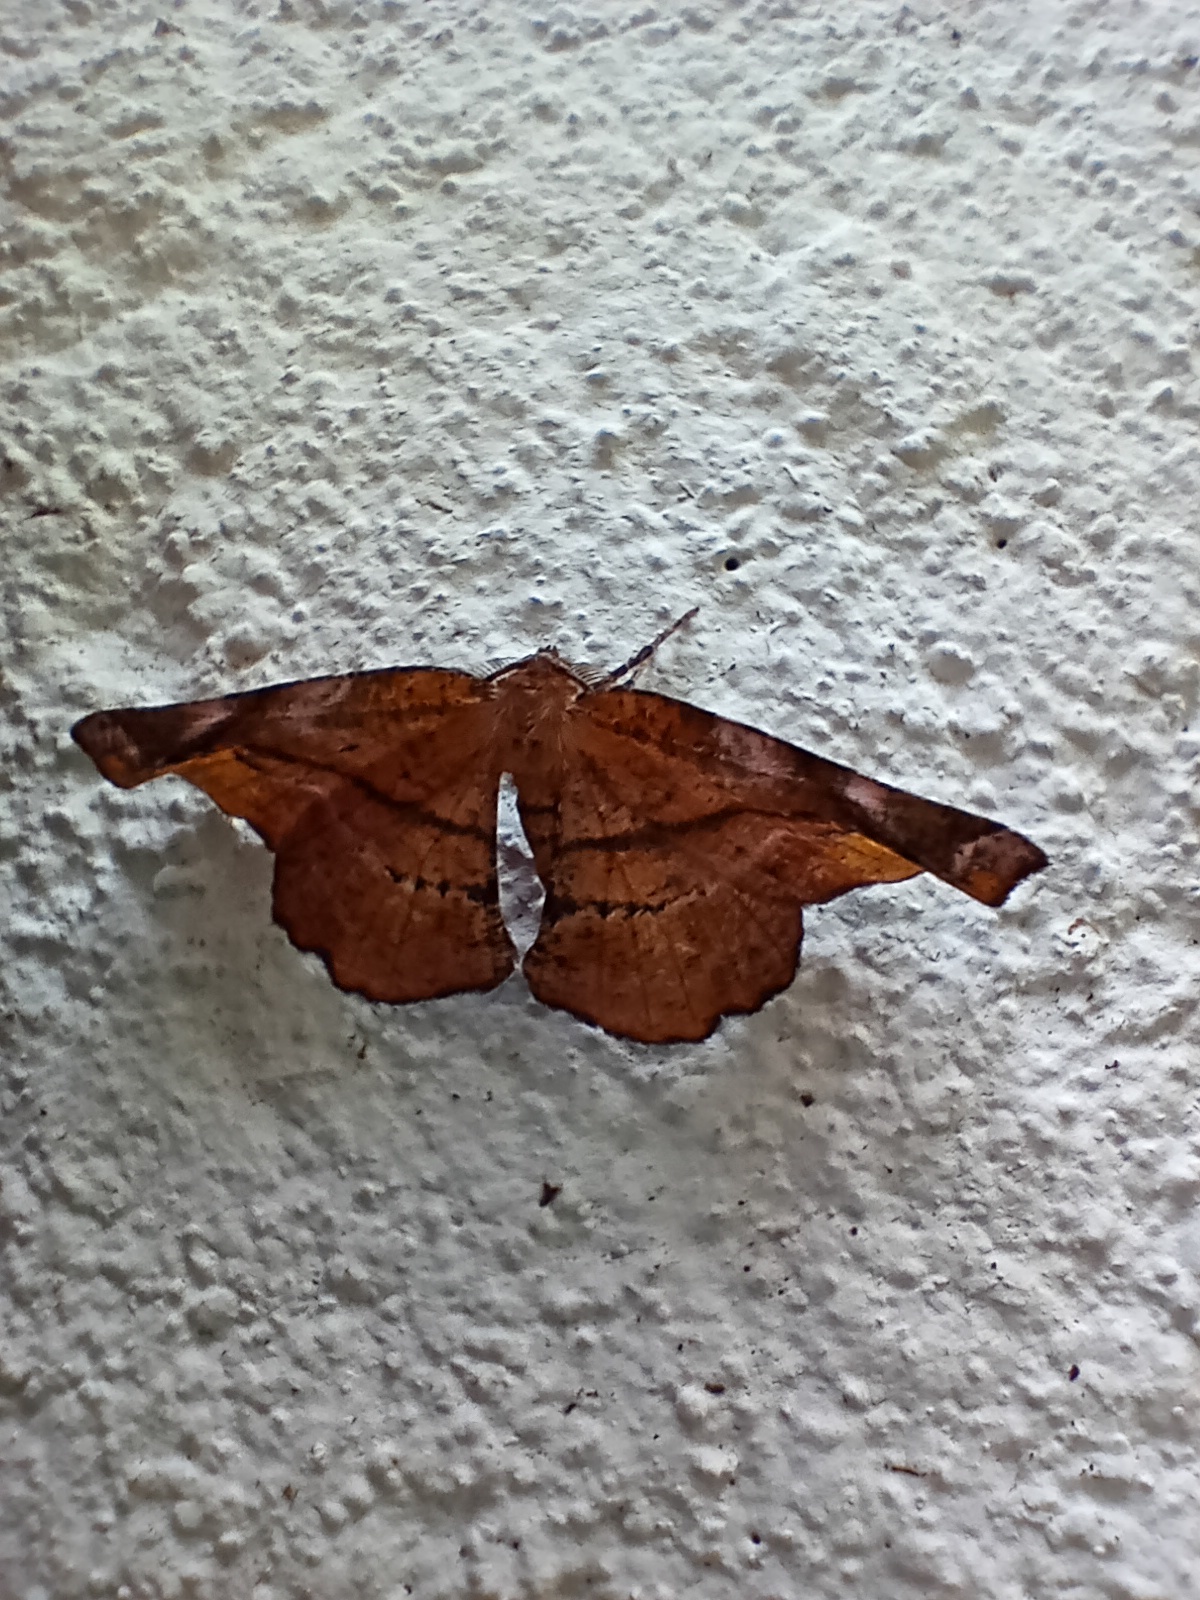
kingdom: Animalia
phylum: Arthropoda
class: Insecta
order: Lepidoptera
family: Geometridae
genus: Apeira
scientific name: Apeira syringaria
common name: Lilac beauty
